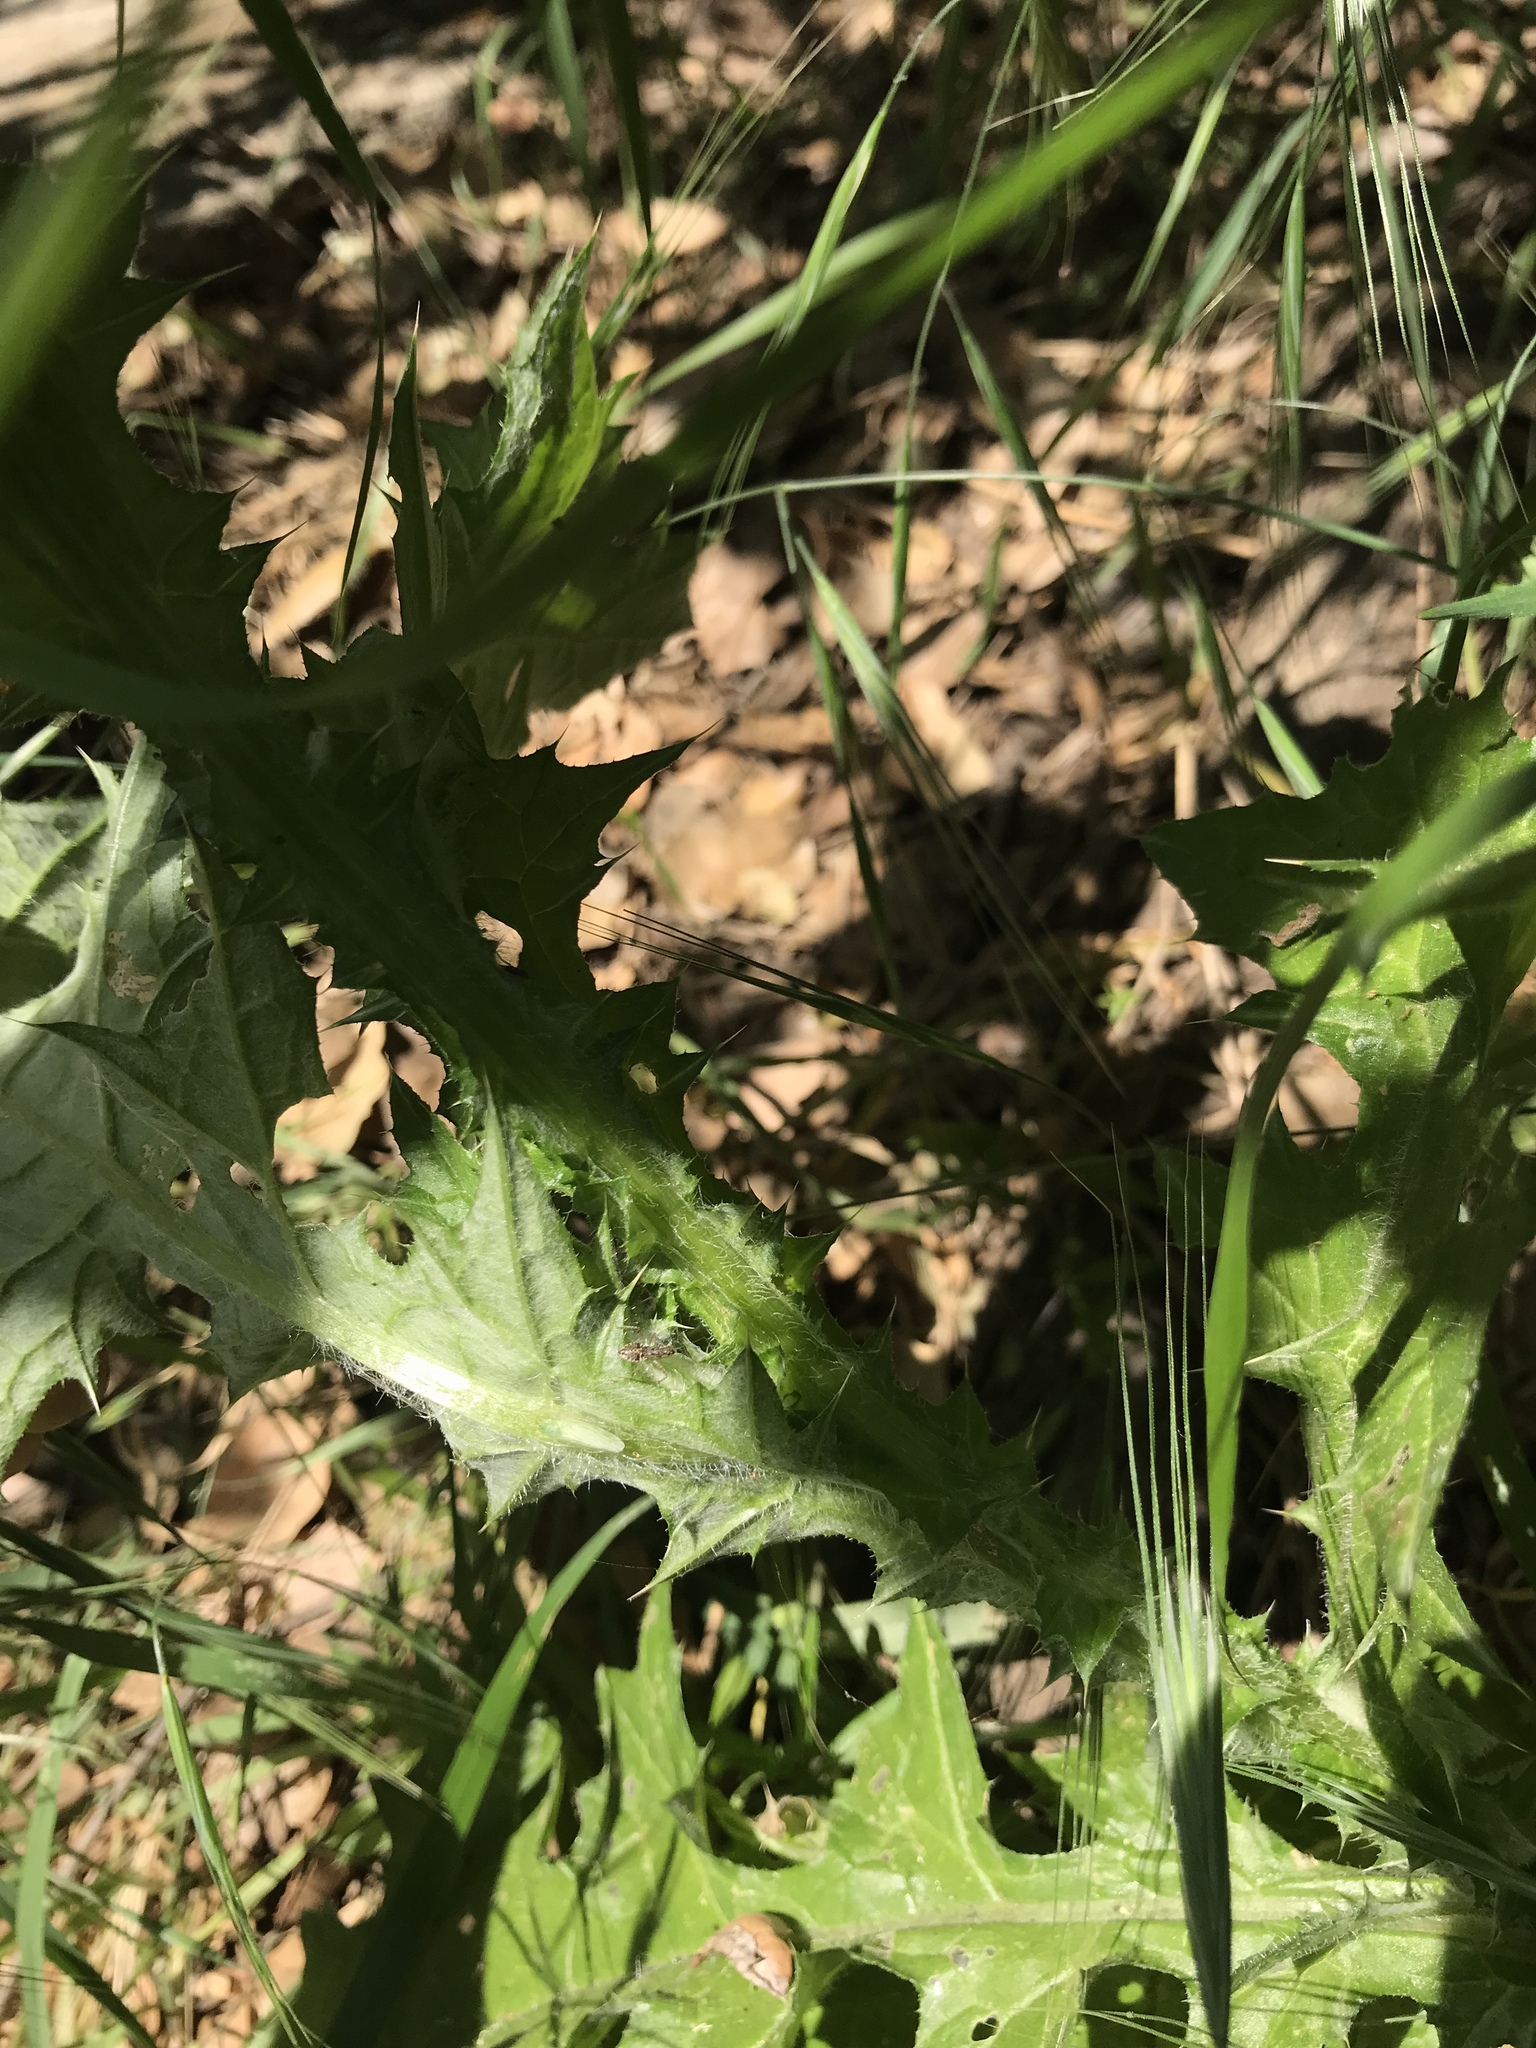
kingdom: Plantae
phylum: Tracheophyta
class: Magnoliopsida
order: Asterales
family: Asteraceae
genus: Carduus
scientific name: Carduus pycnocephalus
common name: Plymouth thistle
